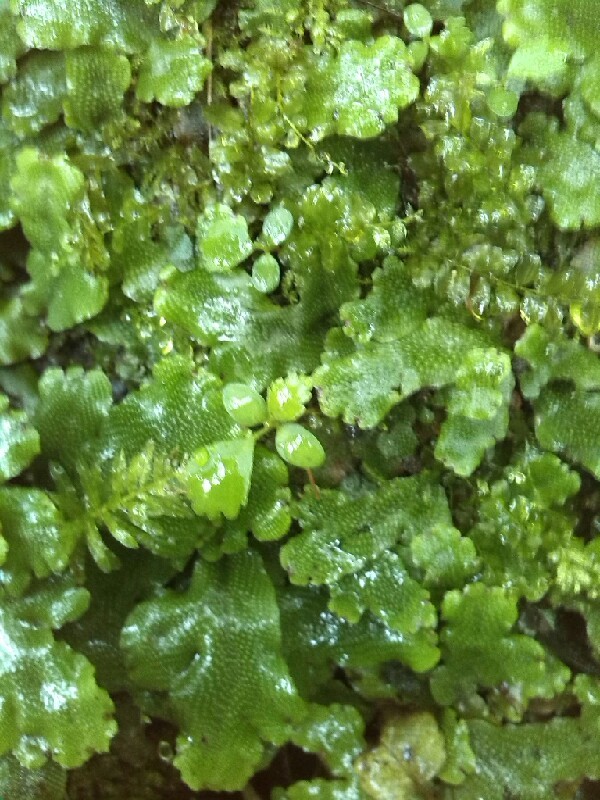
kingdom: Plantae
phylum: Marchantiophyta
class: Marchantiopsida
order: Marchantiales
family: Conocephalaceae
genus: Conocephalum
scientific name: Conocephalum conicum
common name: Great scented liverwort
